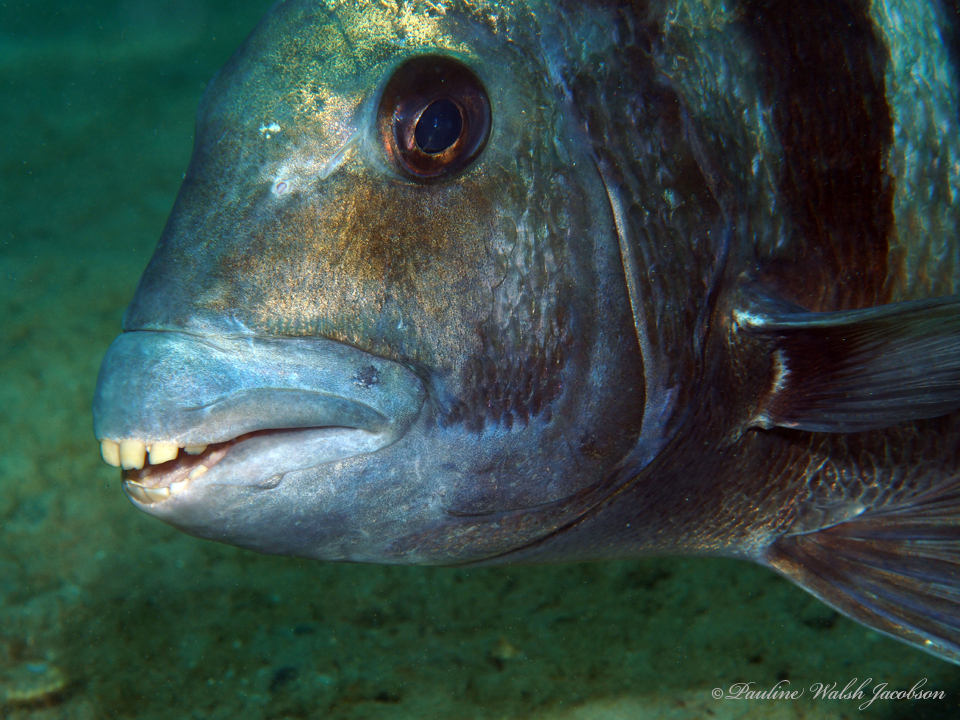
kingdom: Animalia
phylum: Chordata
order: Perciformes
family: Sparidae
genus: Archosargus
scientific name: Archosargus probatocephalus
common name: Sheepshead
